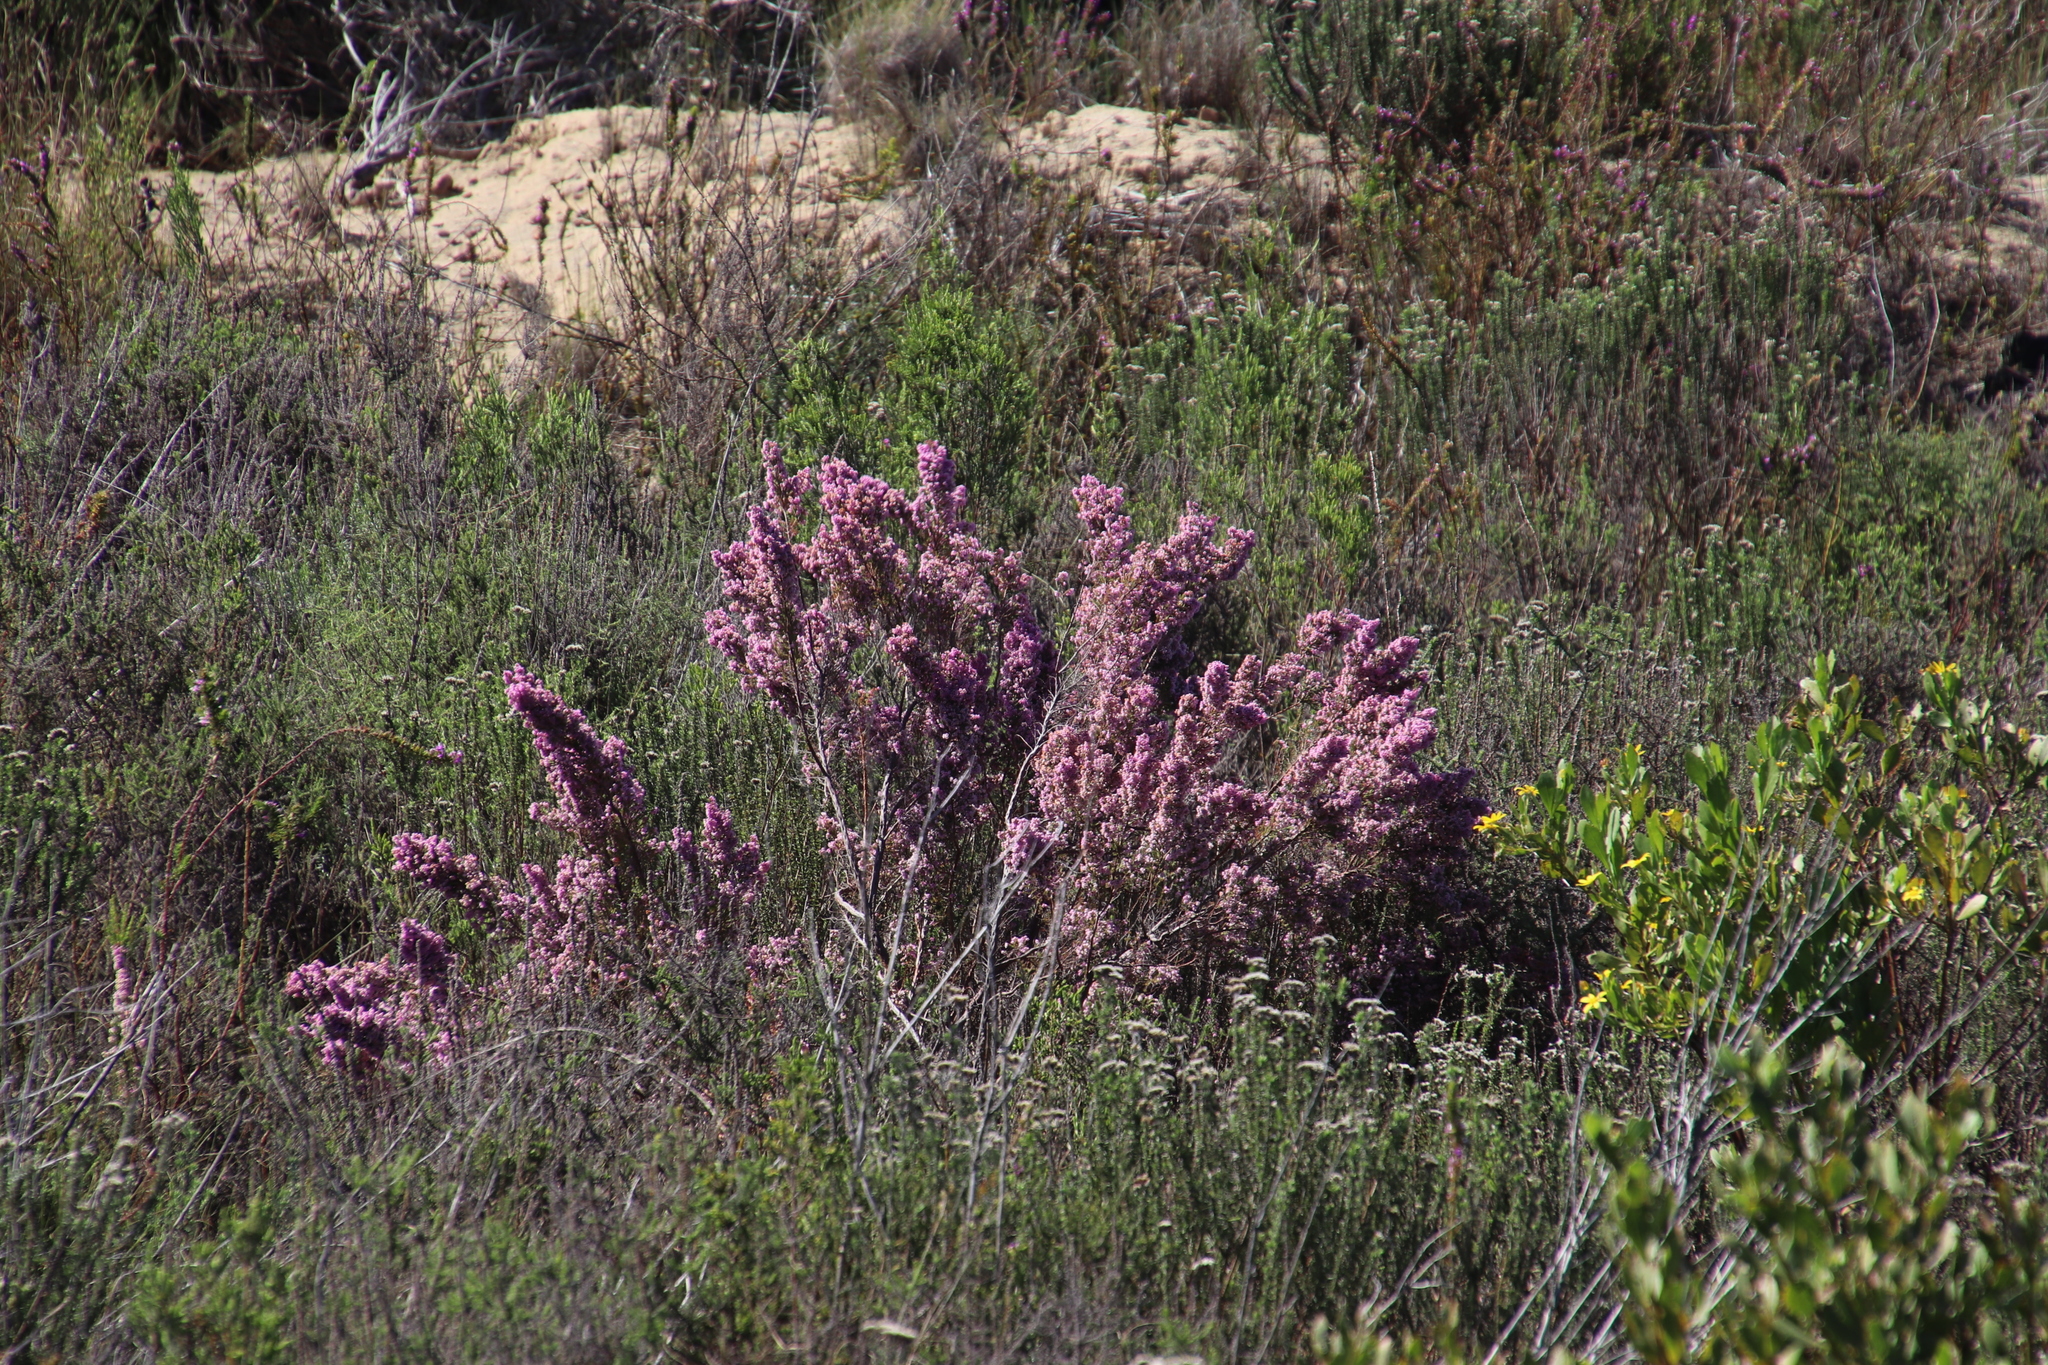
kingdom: Plantae
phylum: Tracheophyta
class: Magnoliopsida
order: Ericales
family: Ericaceae
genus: Erica
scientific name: Erica mauritanica
